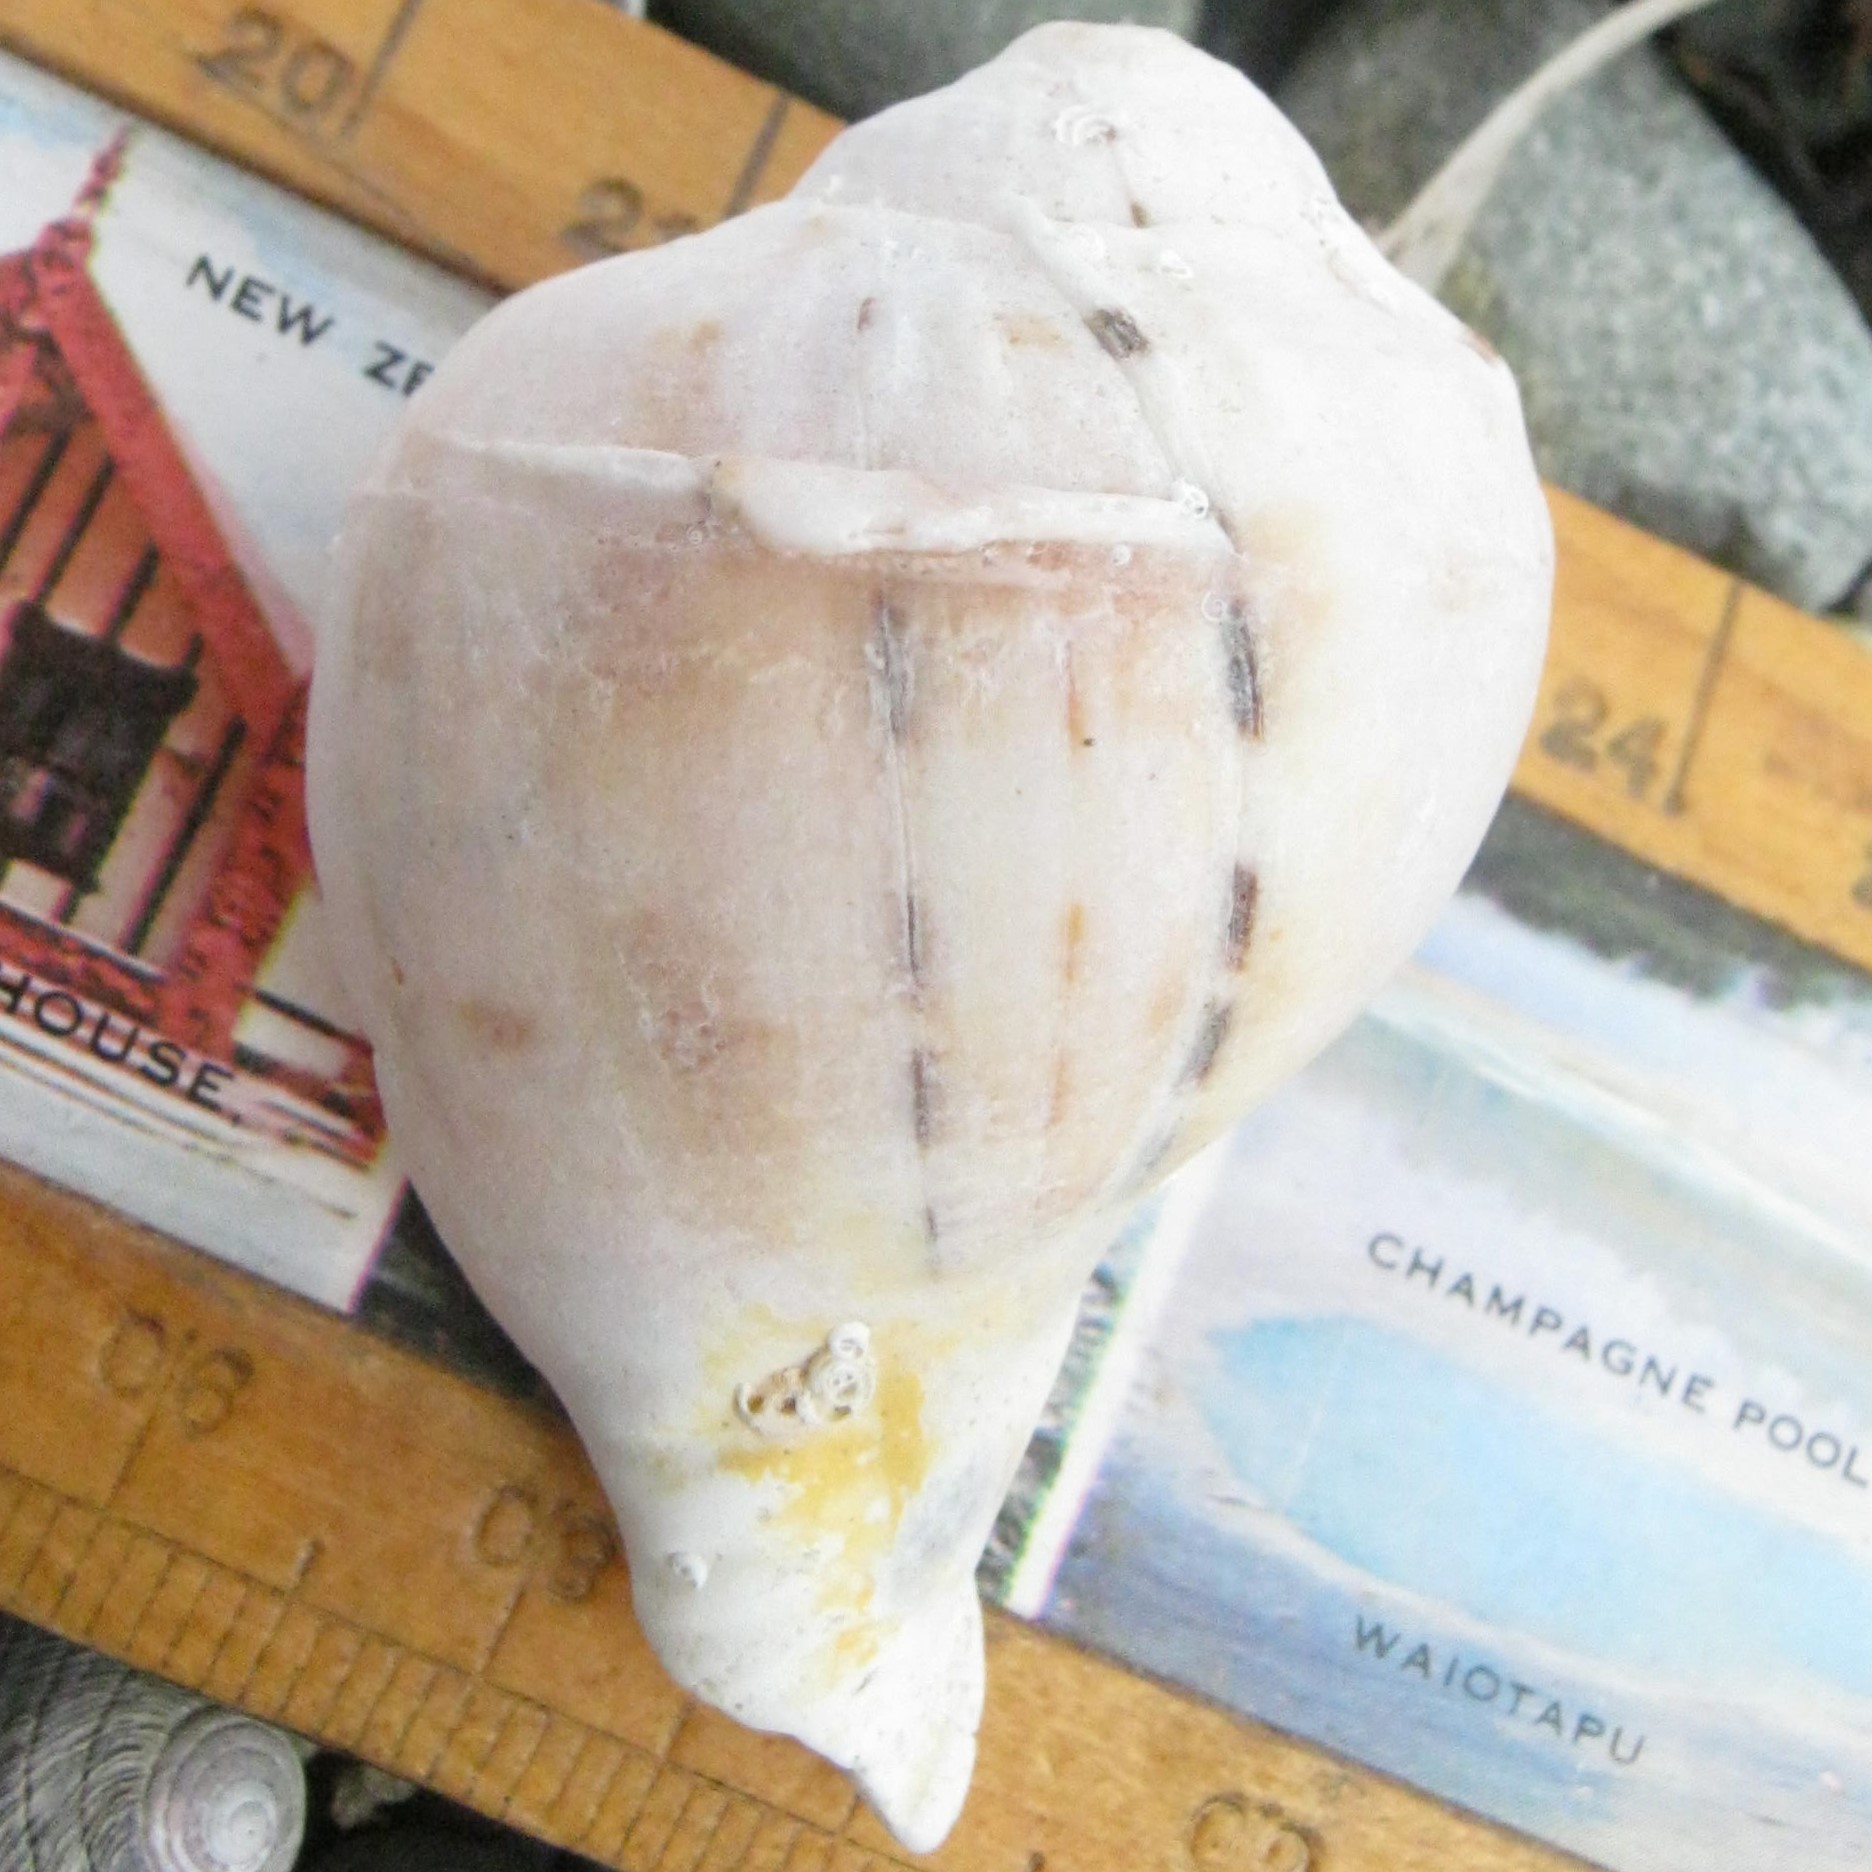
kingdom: Animalia
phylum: Mollusca
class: Gastropoda
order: Littorinimorpha
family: Cassidae
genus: Semicassis
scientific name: Semicassis pyrum
